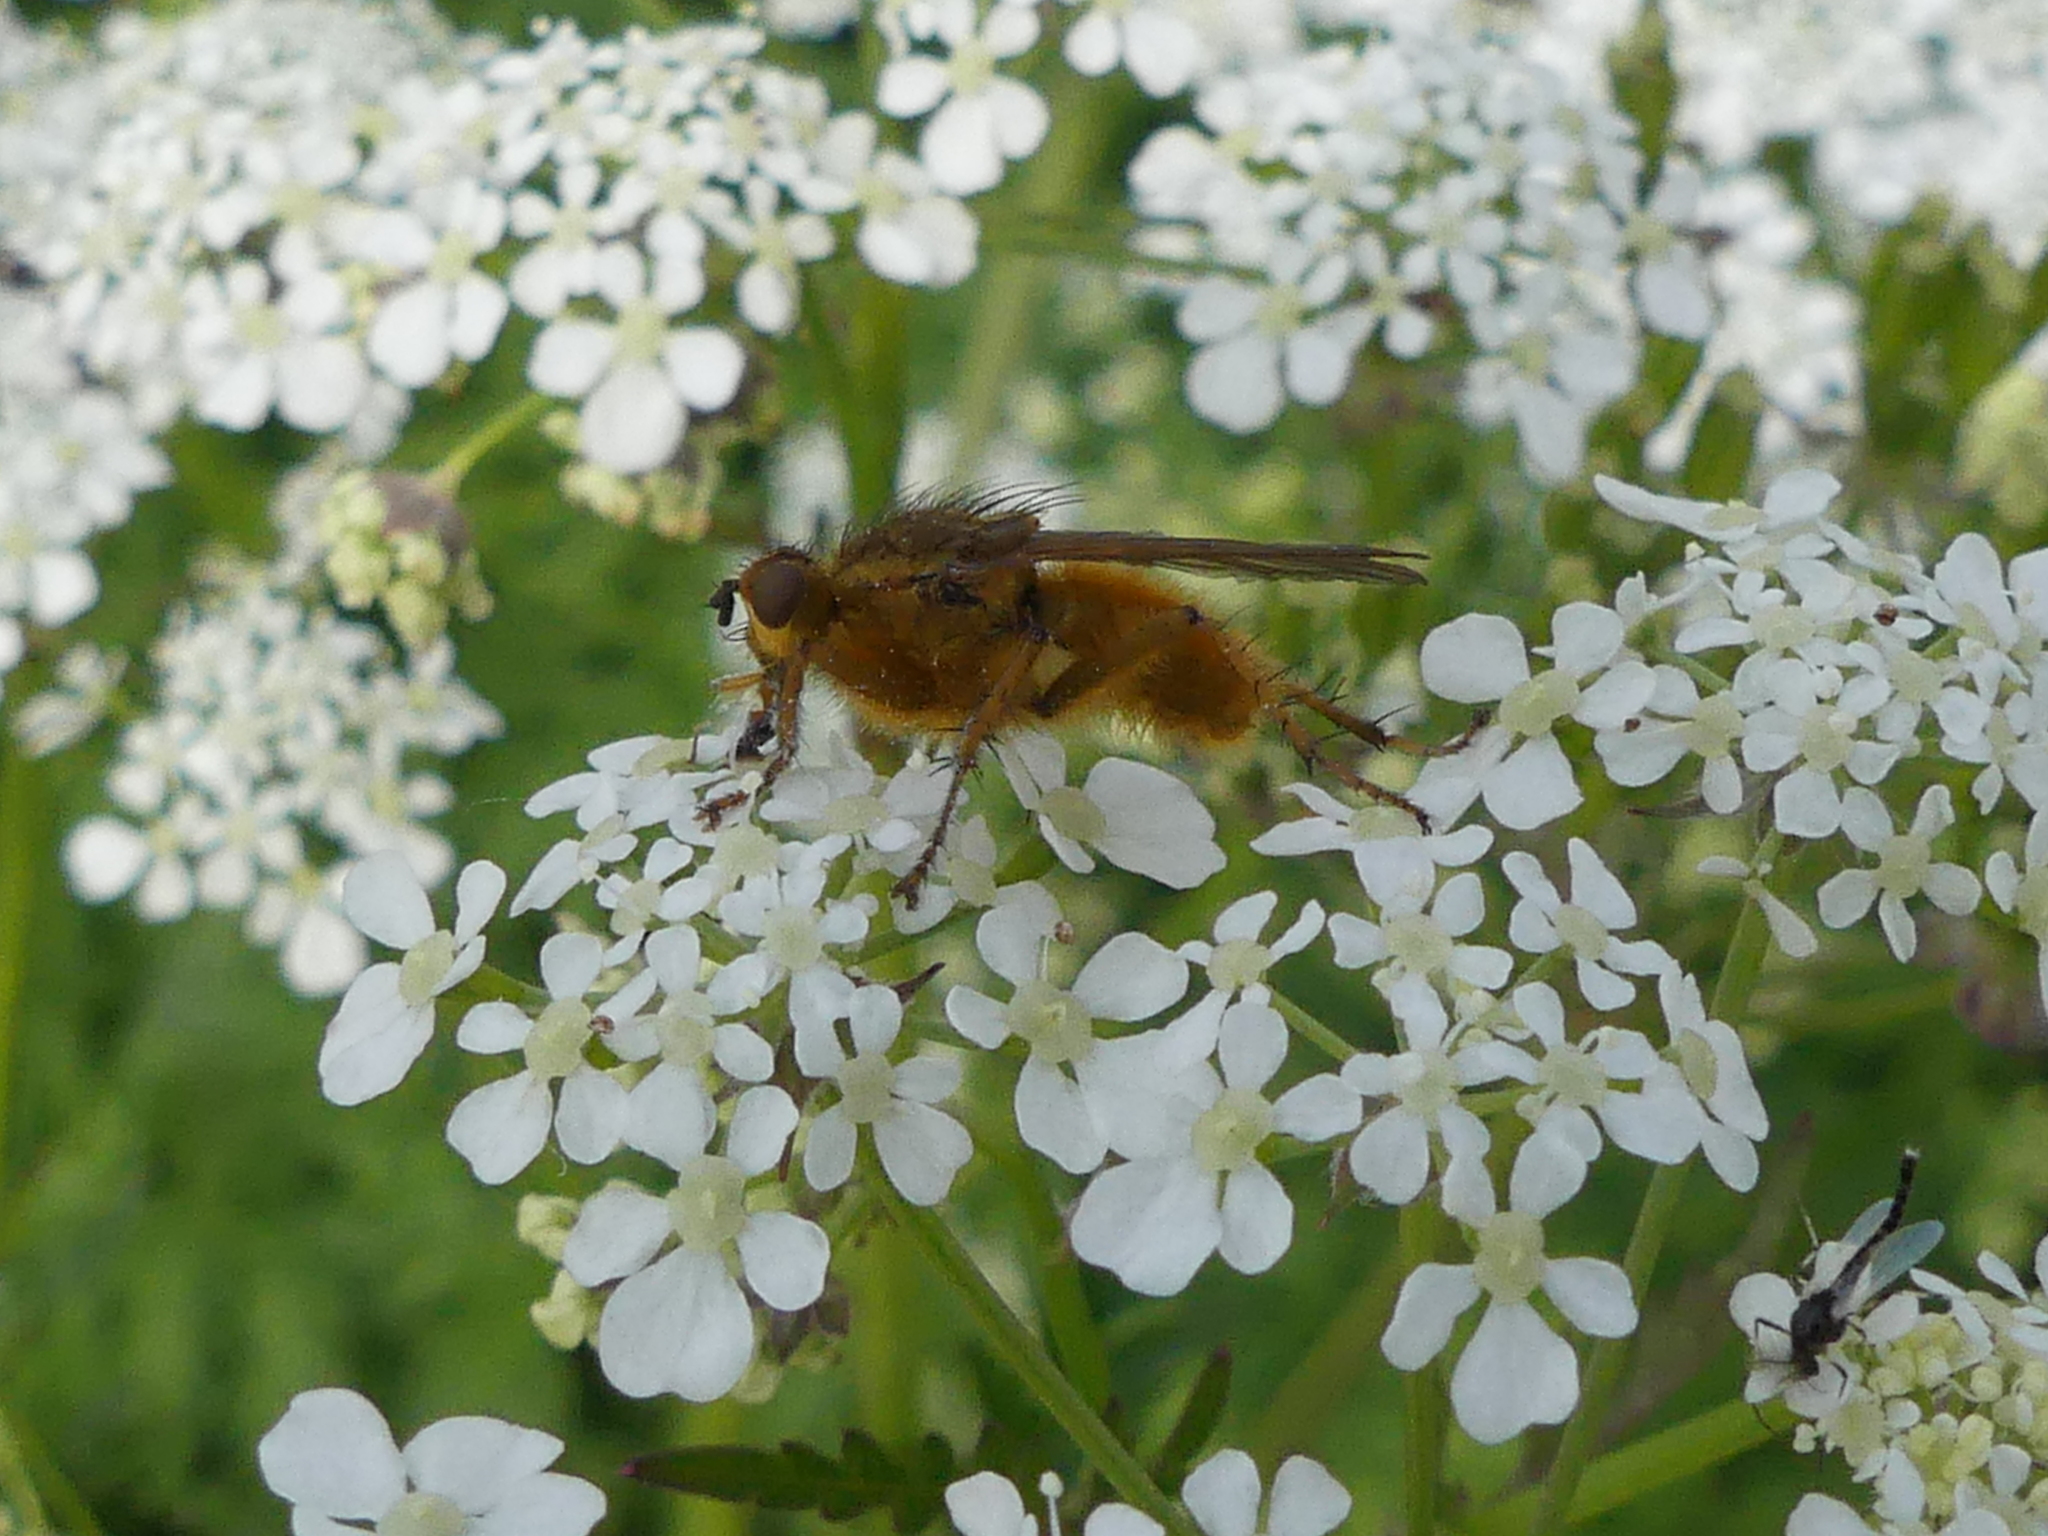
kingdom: Animalia
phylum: Arthropoda
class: Insecta
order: Diptera
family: Scathophagidae
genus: Scathophaga
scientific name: Scathophaga stercoraria
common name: Yellow dung fly
